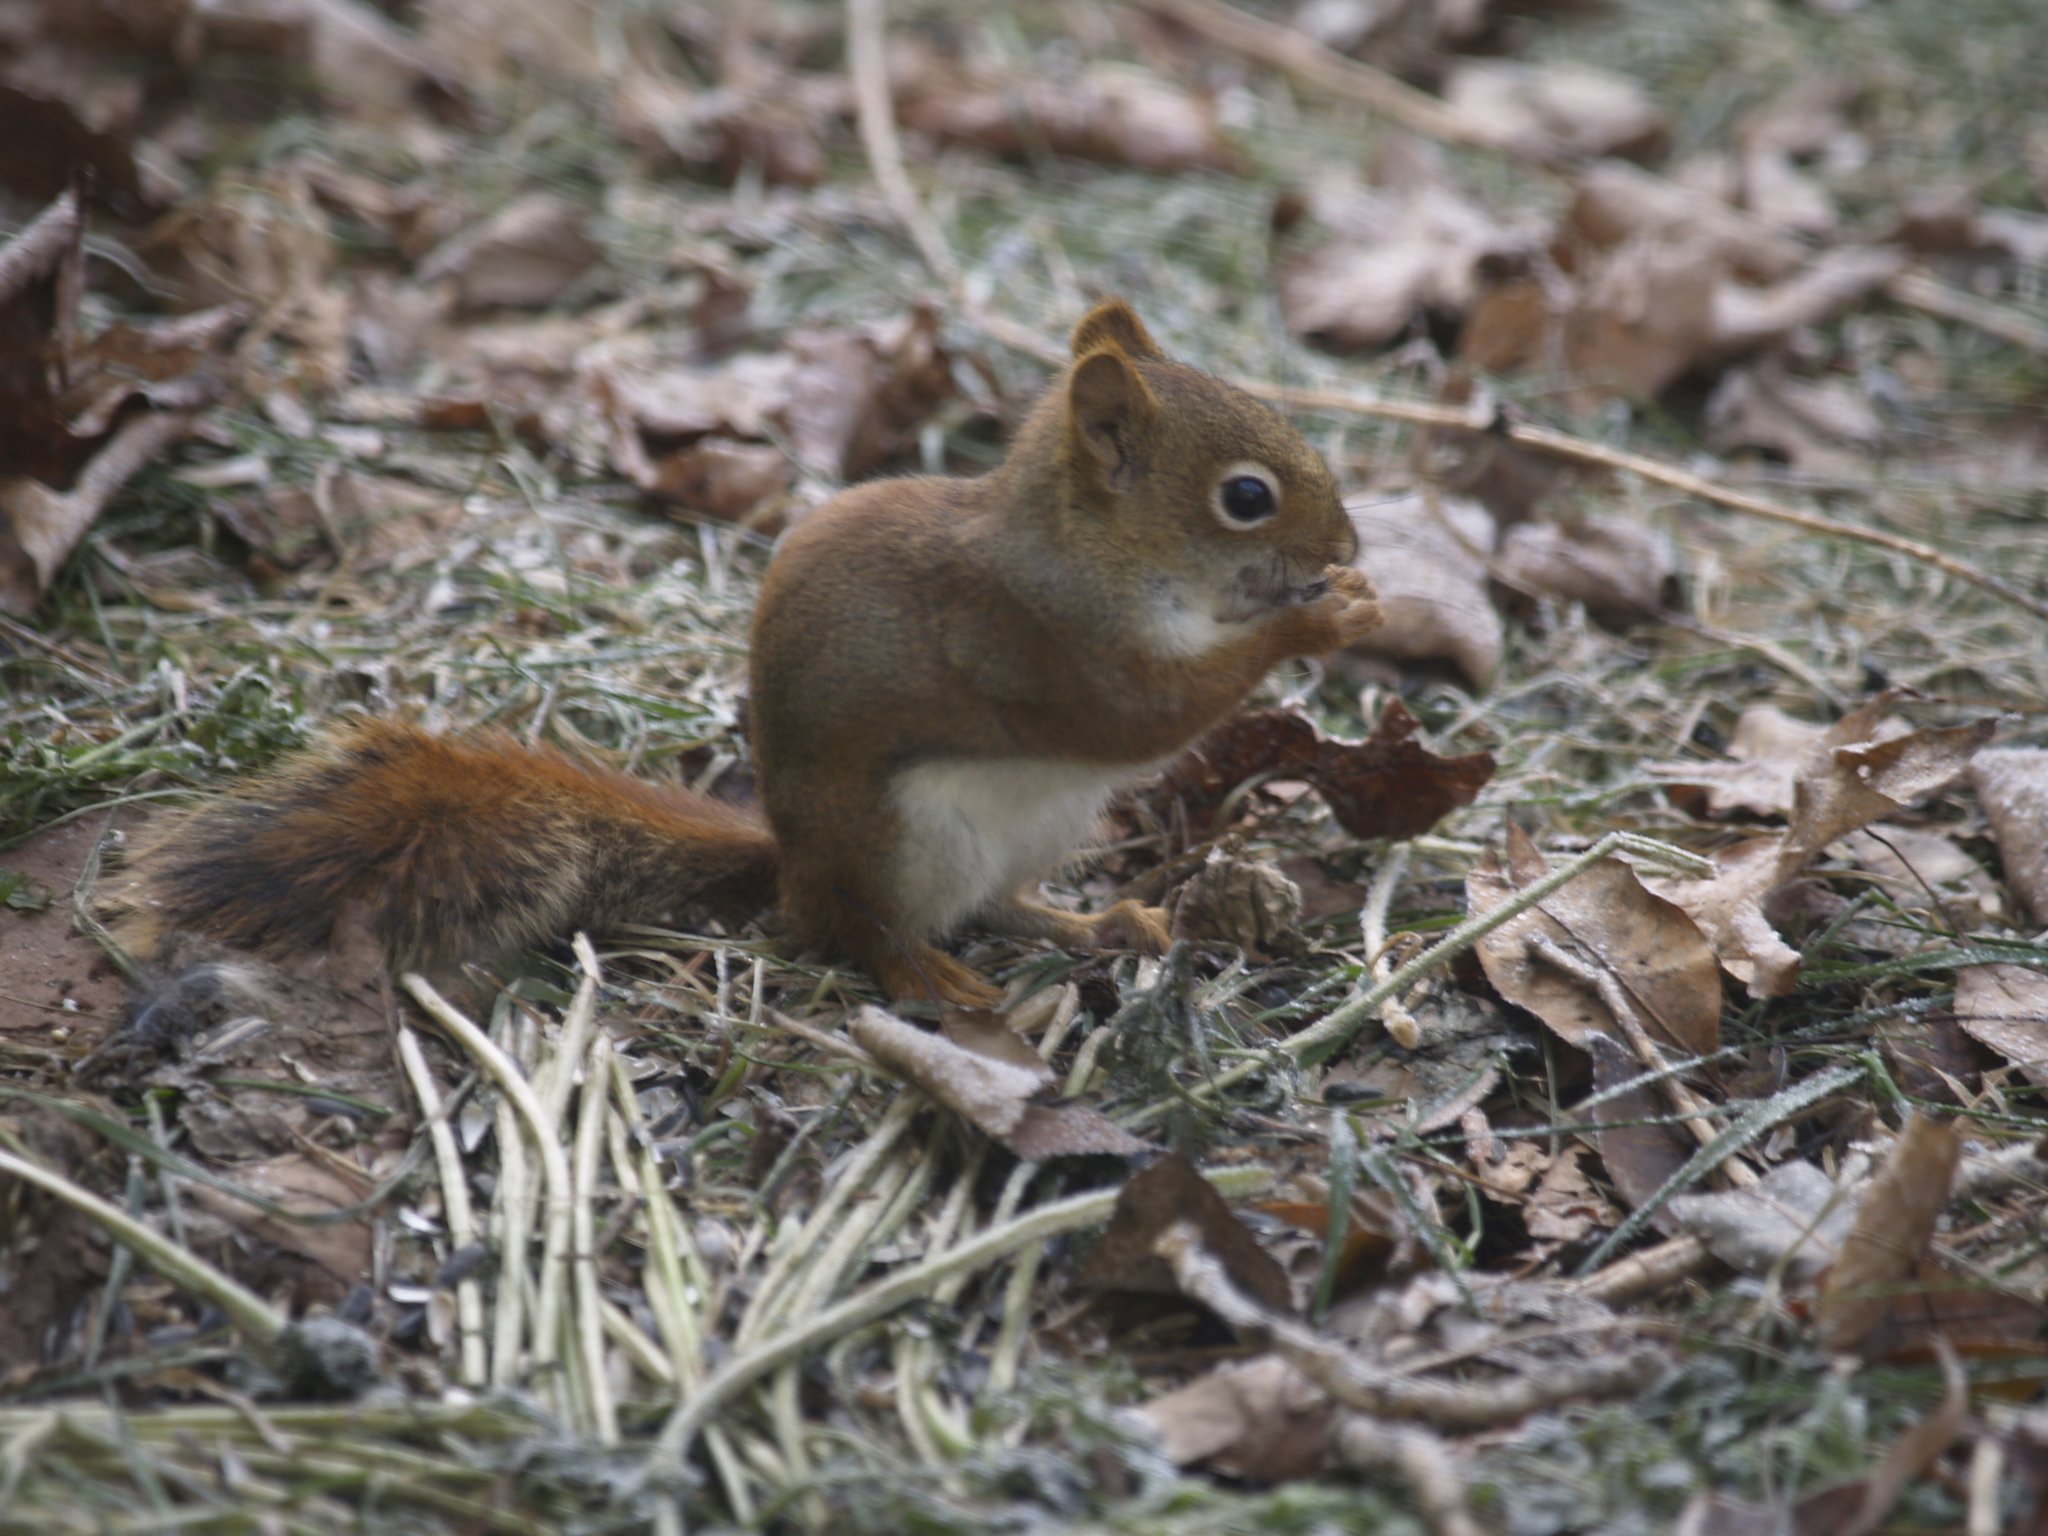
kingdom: Animalia
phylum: Chordata
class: Mammalia
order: Rodentia
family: Sciuridae
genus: Tamiasciurus
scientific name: Tamiasciurus hudsonicus
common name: Red squirrel
